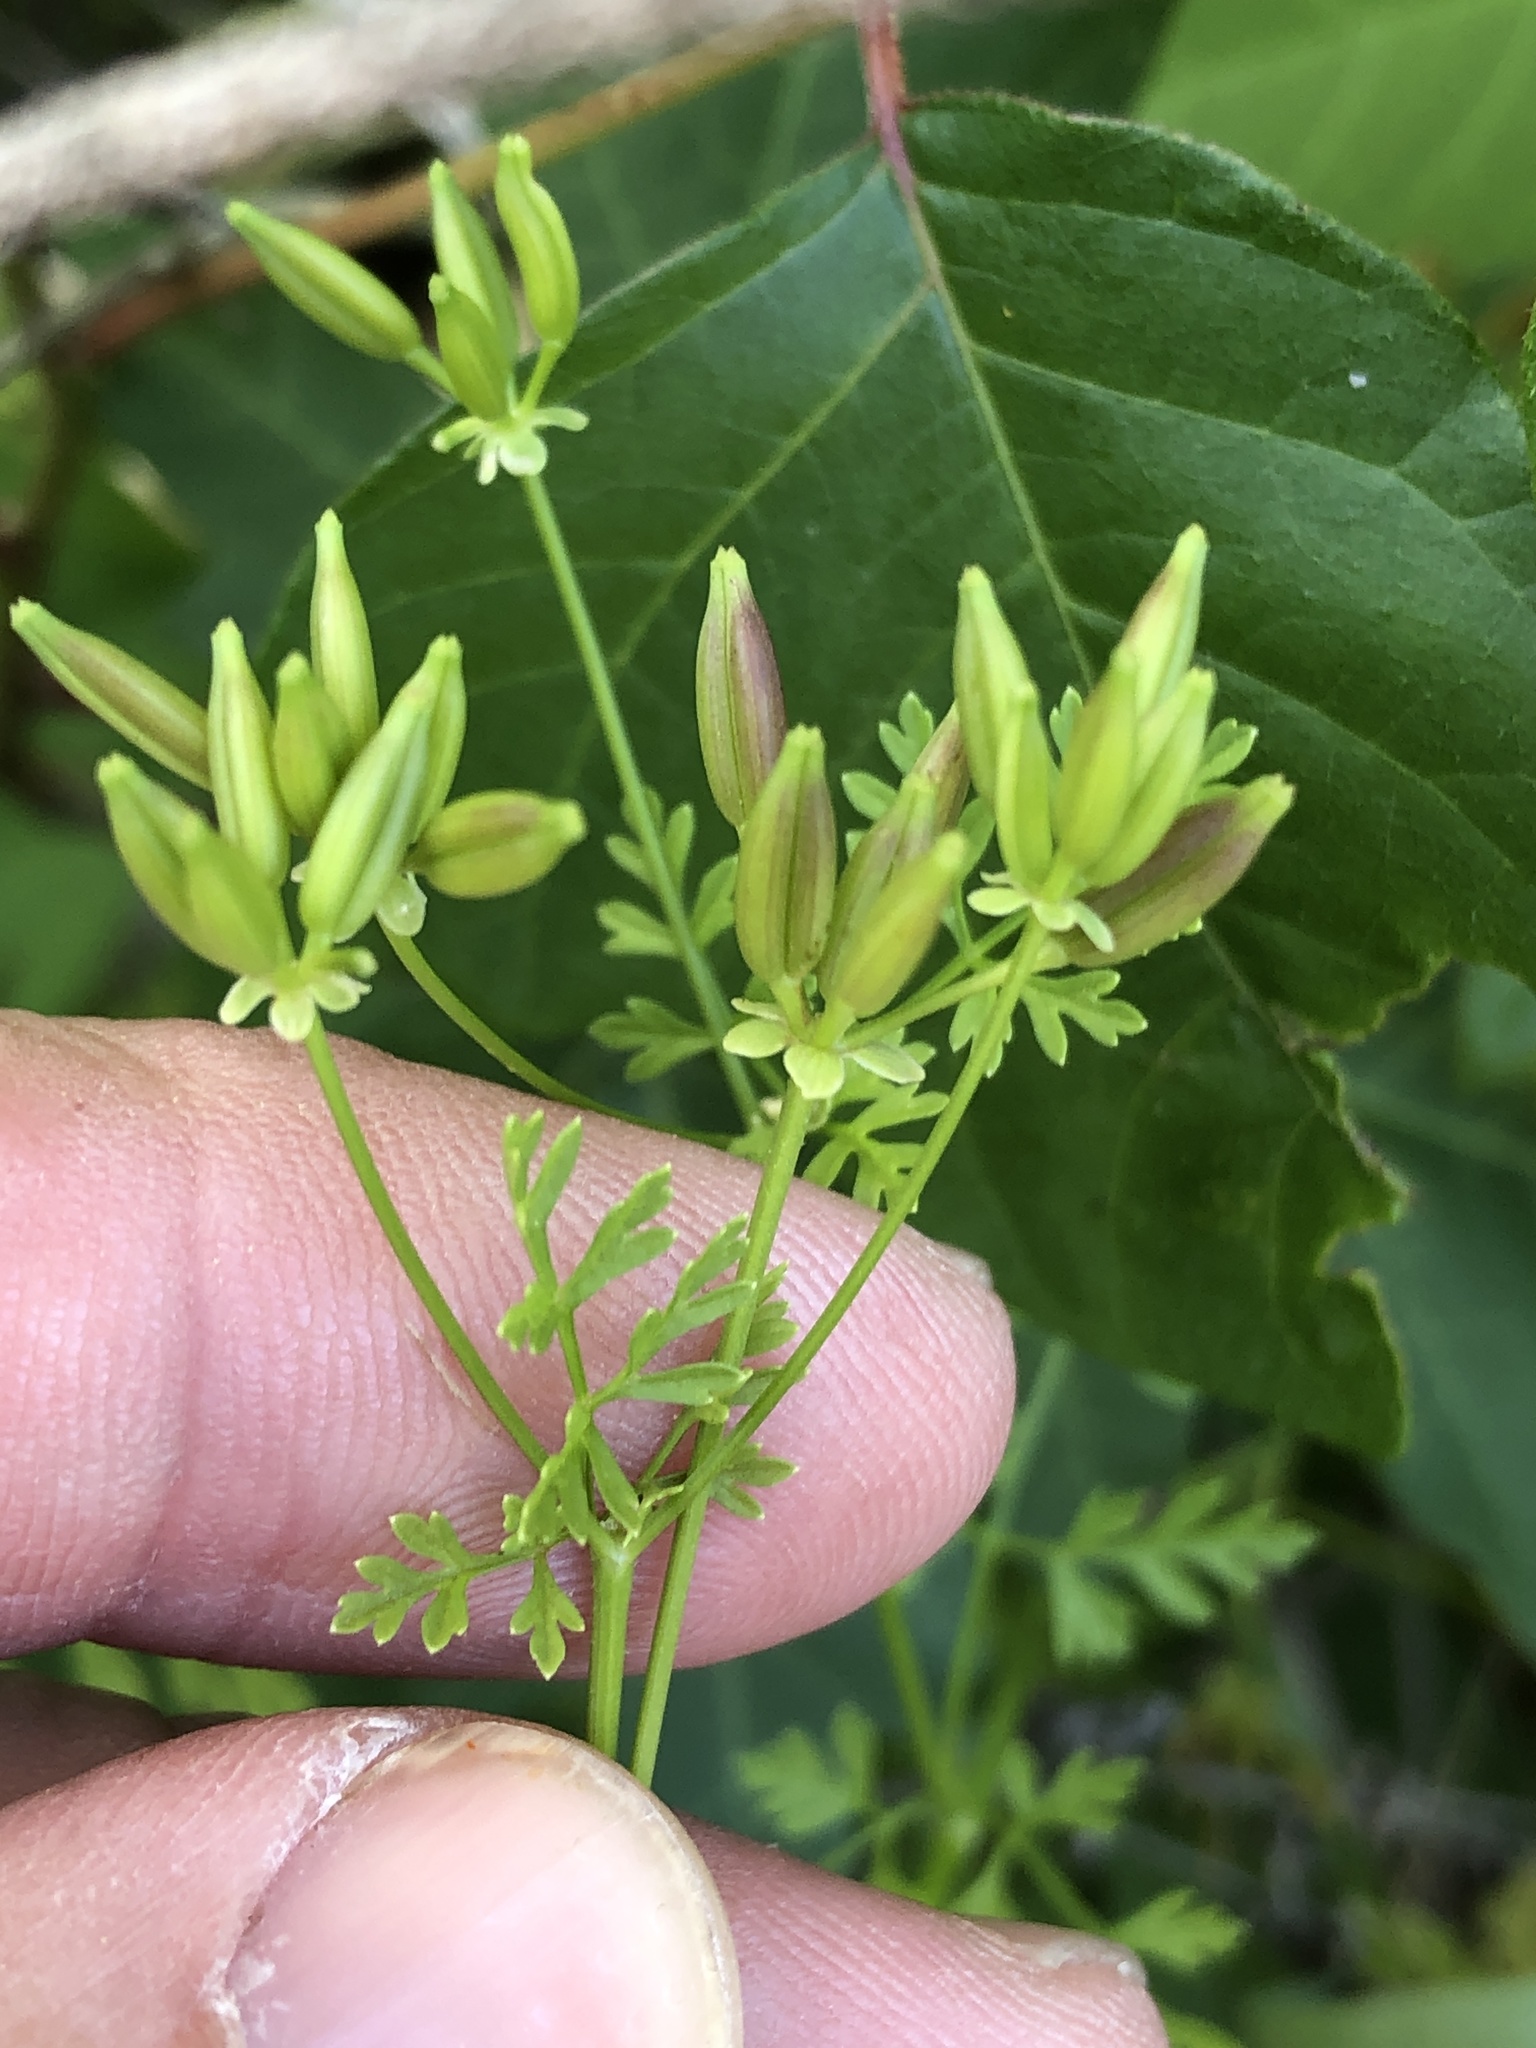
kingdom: Plantae
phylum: Tracheophyta
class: Magnoliopsida
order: Apiales
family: Apiaceae
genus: Chaerophyllum
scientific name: Chaerophyllum tainturieri
